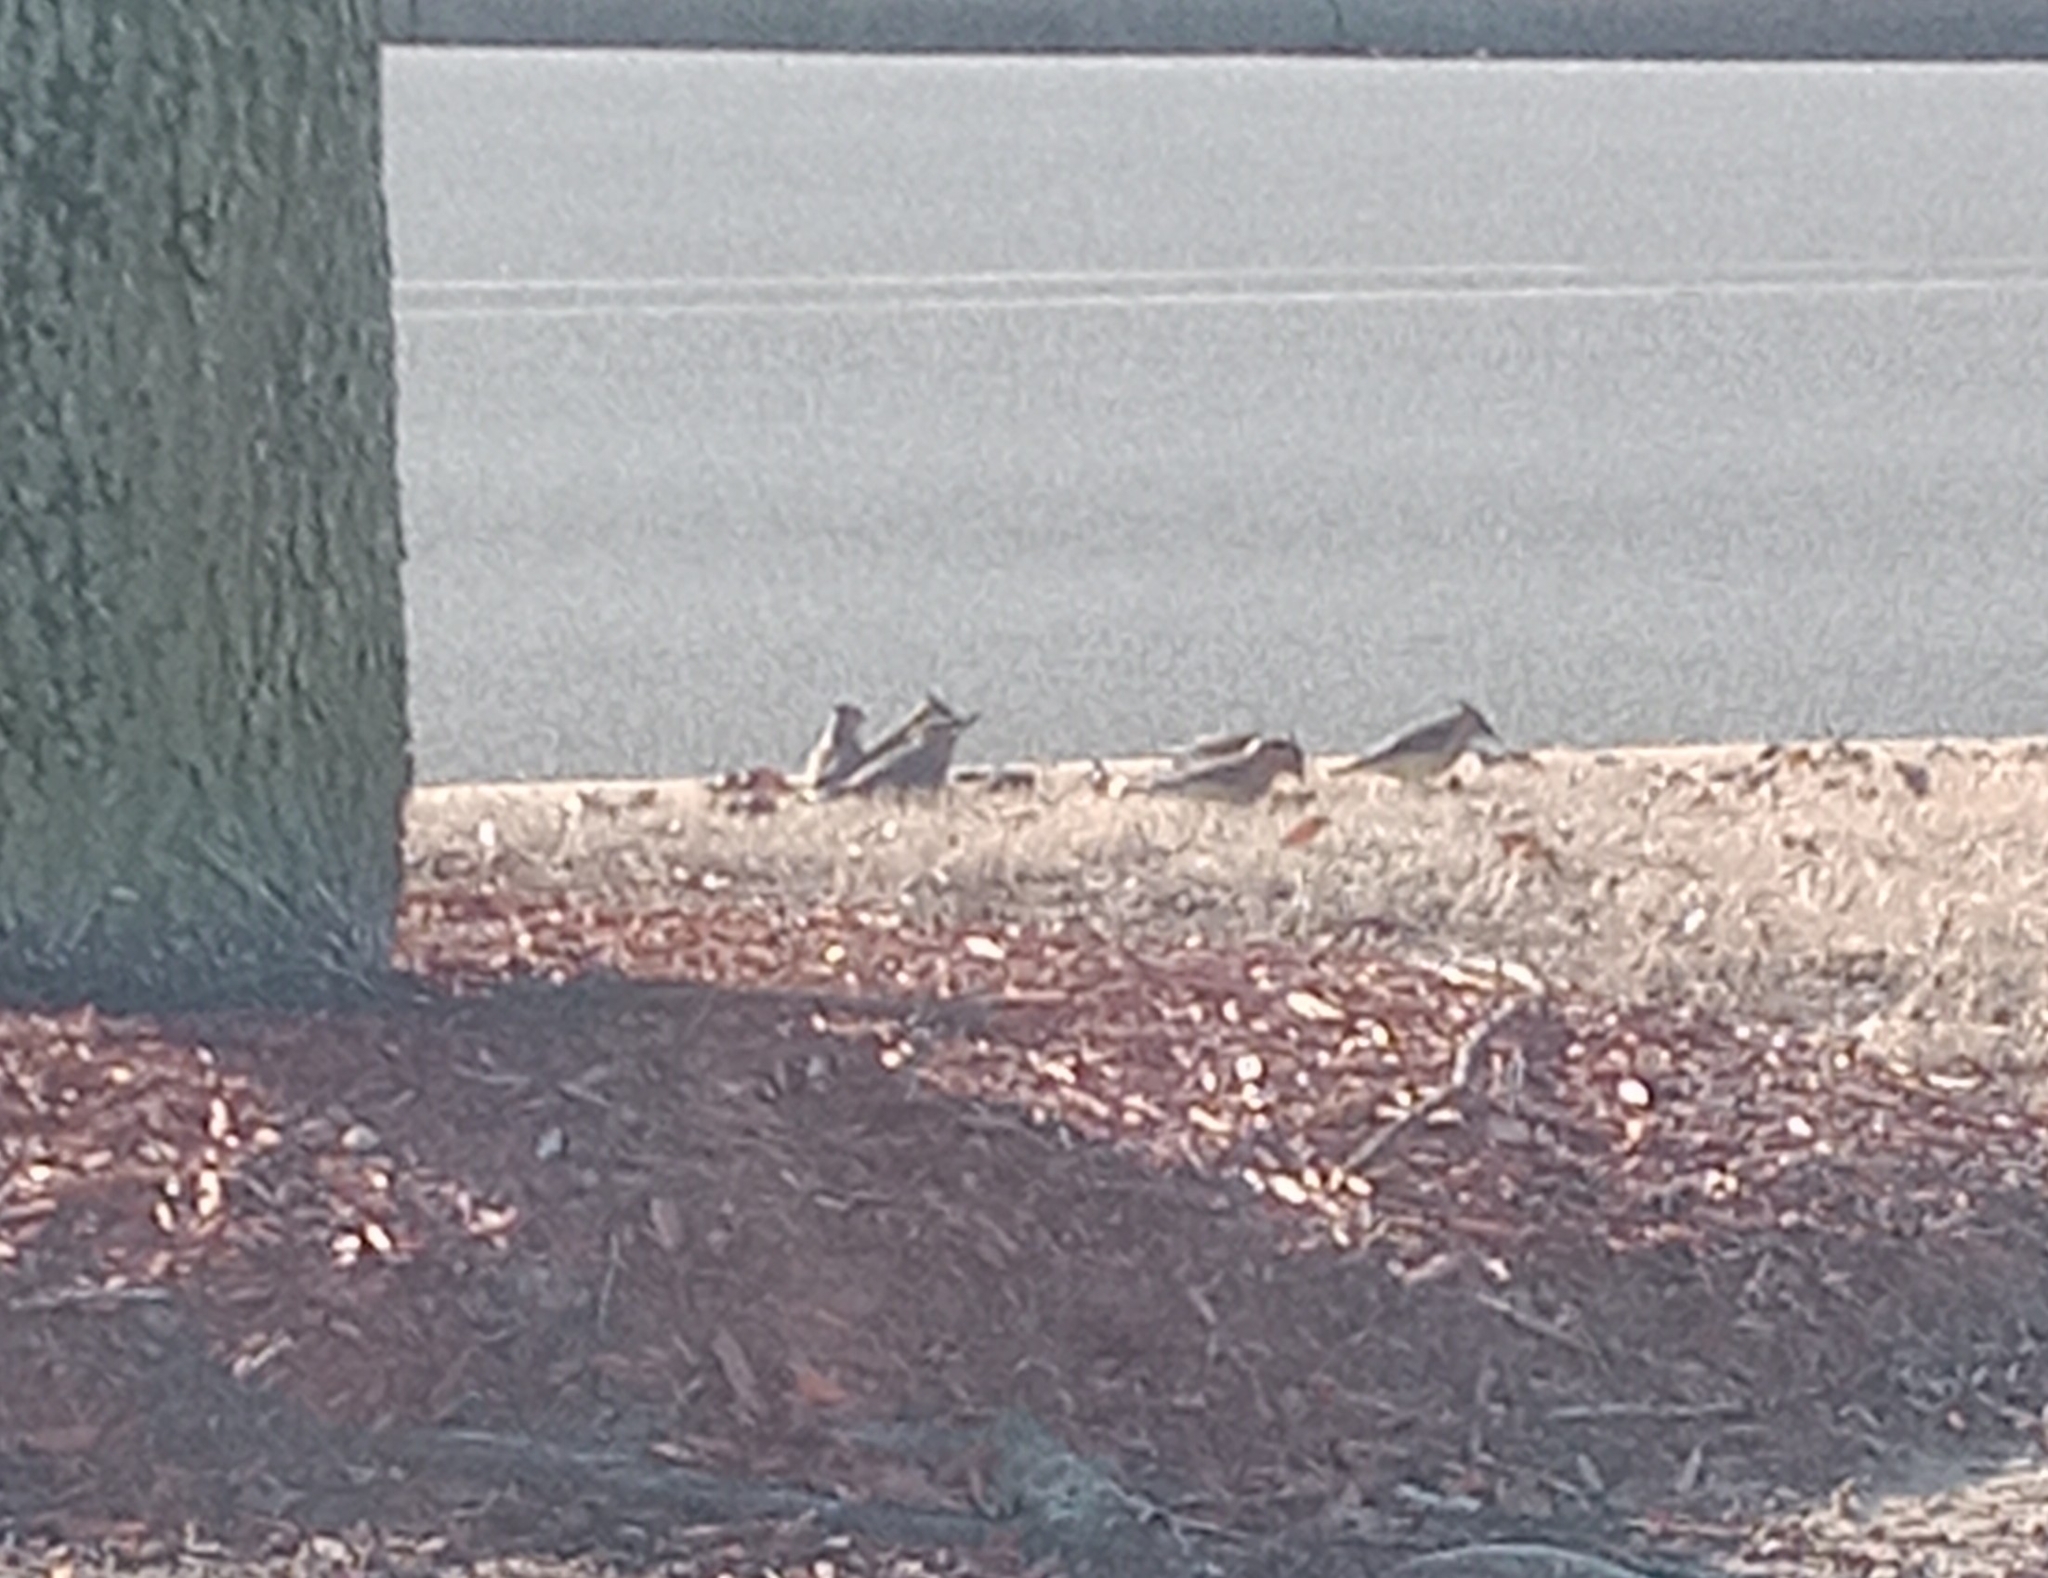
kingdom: Animalia
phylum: Chordata
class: Aves
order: Passeriformes
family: Bombycillidae
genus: Bombycilla
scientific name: Bombycilla cedrorum
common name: Cedar waxwing
